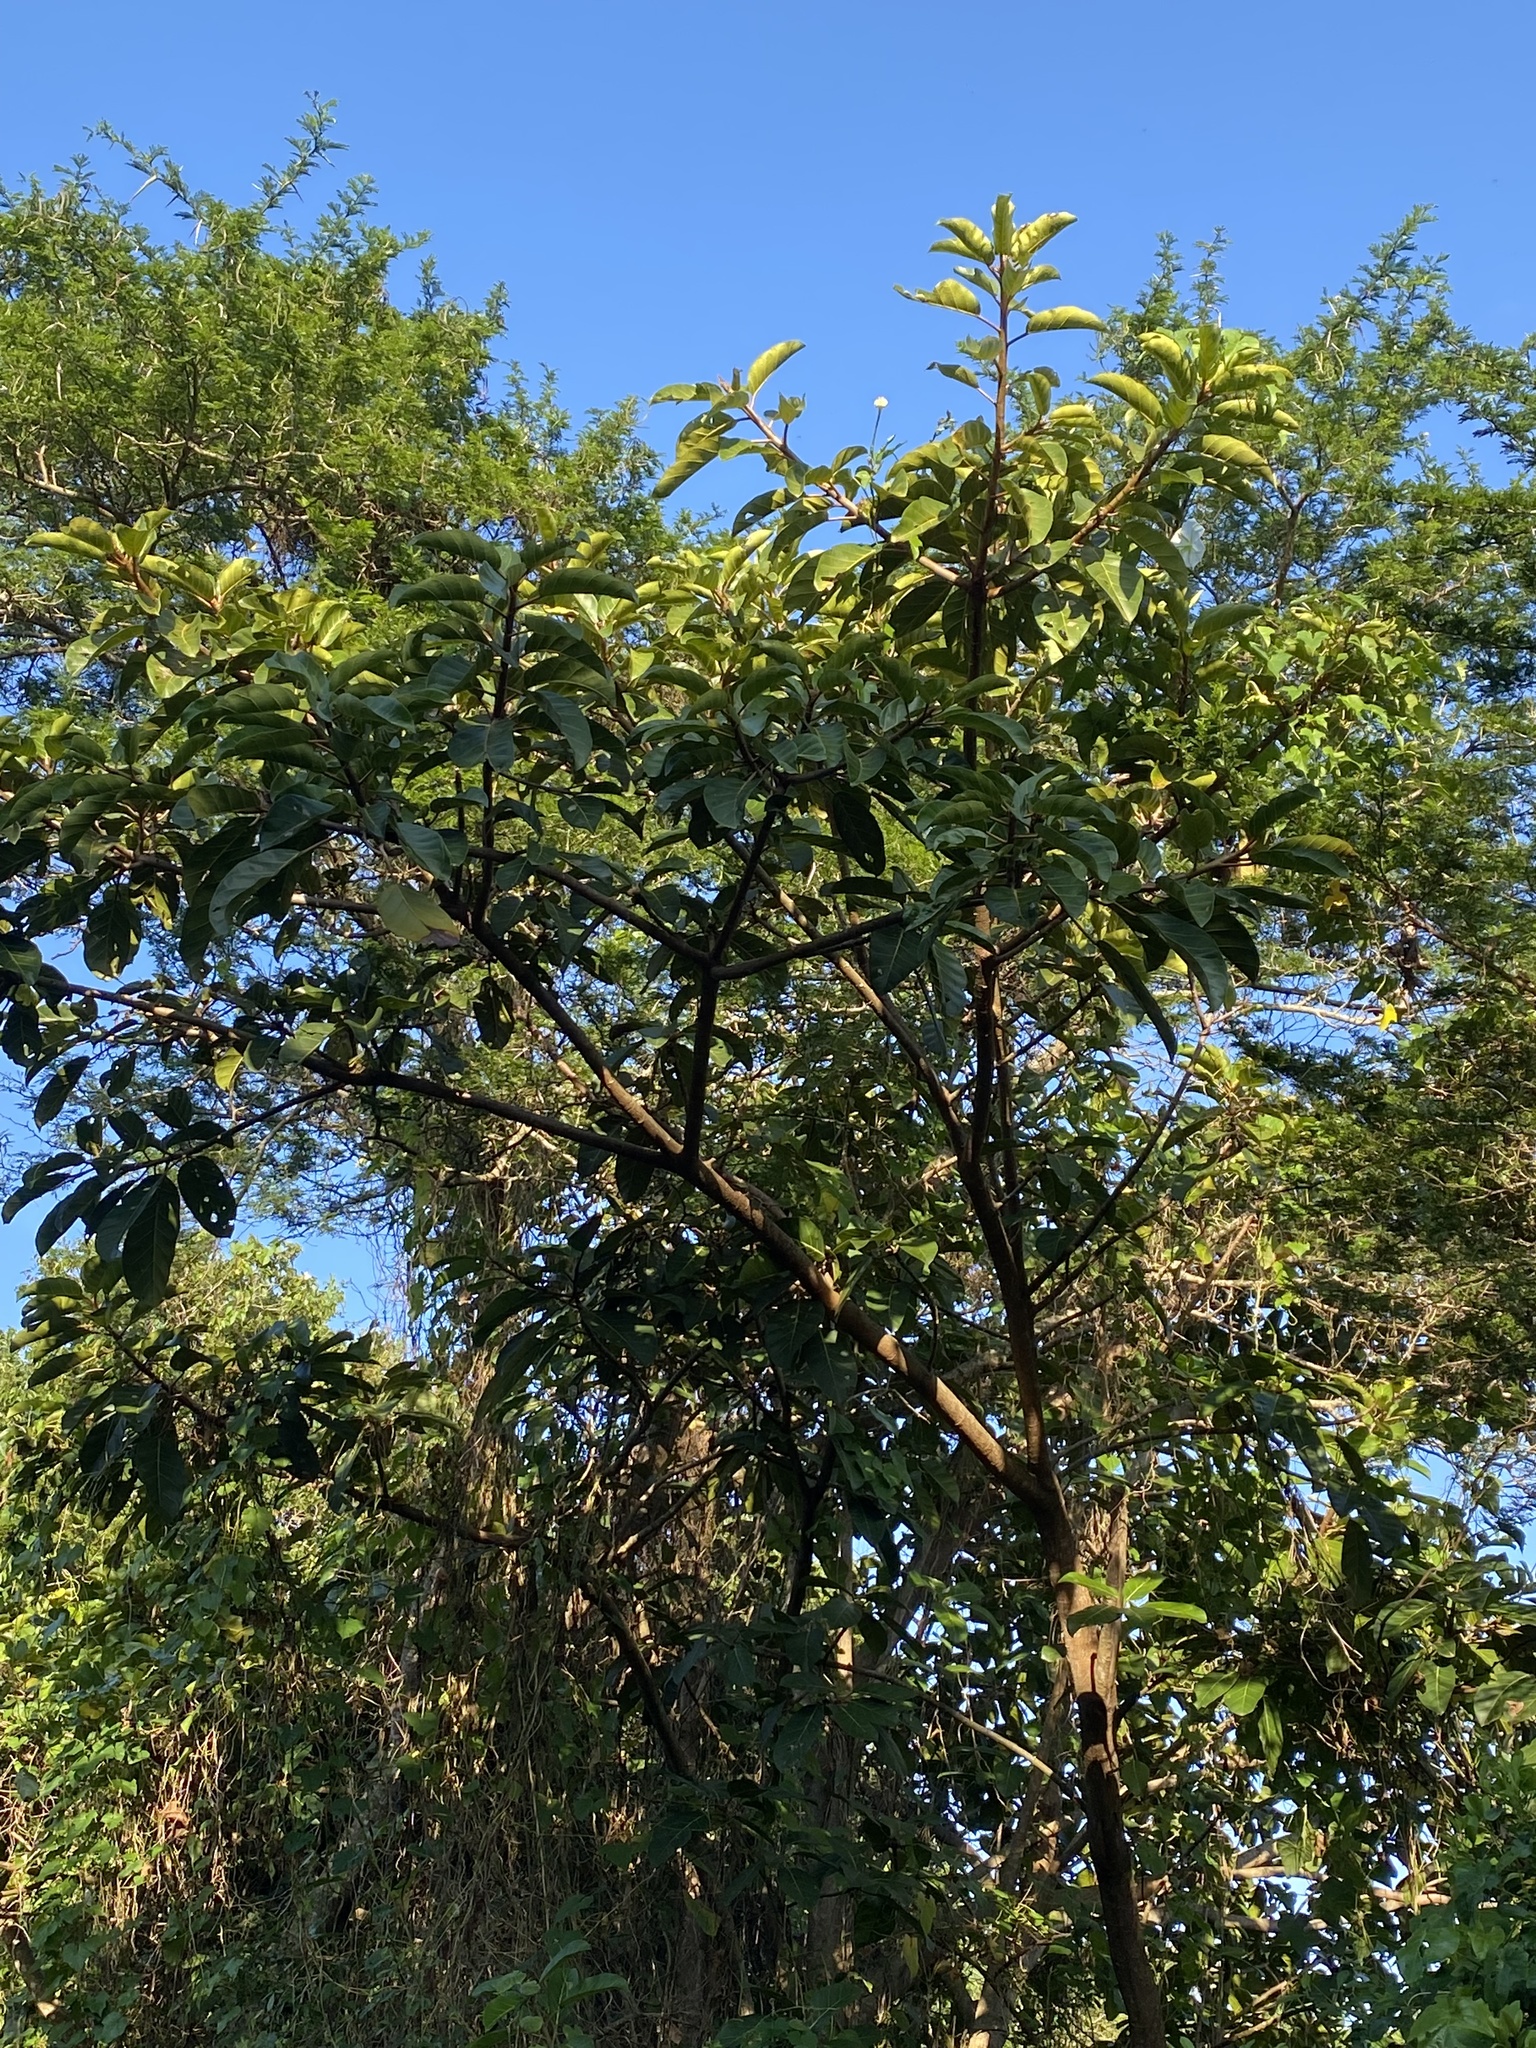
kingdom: Plantae
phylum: Tracheophyta
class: Magnoliopsida
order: Rosales
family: Moraceae
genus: Ficus
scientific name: Ficus lutea
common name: Giant-leaved fig
